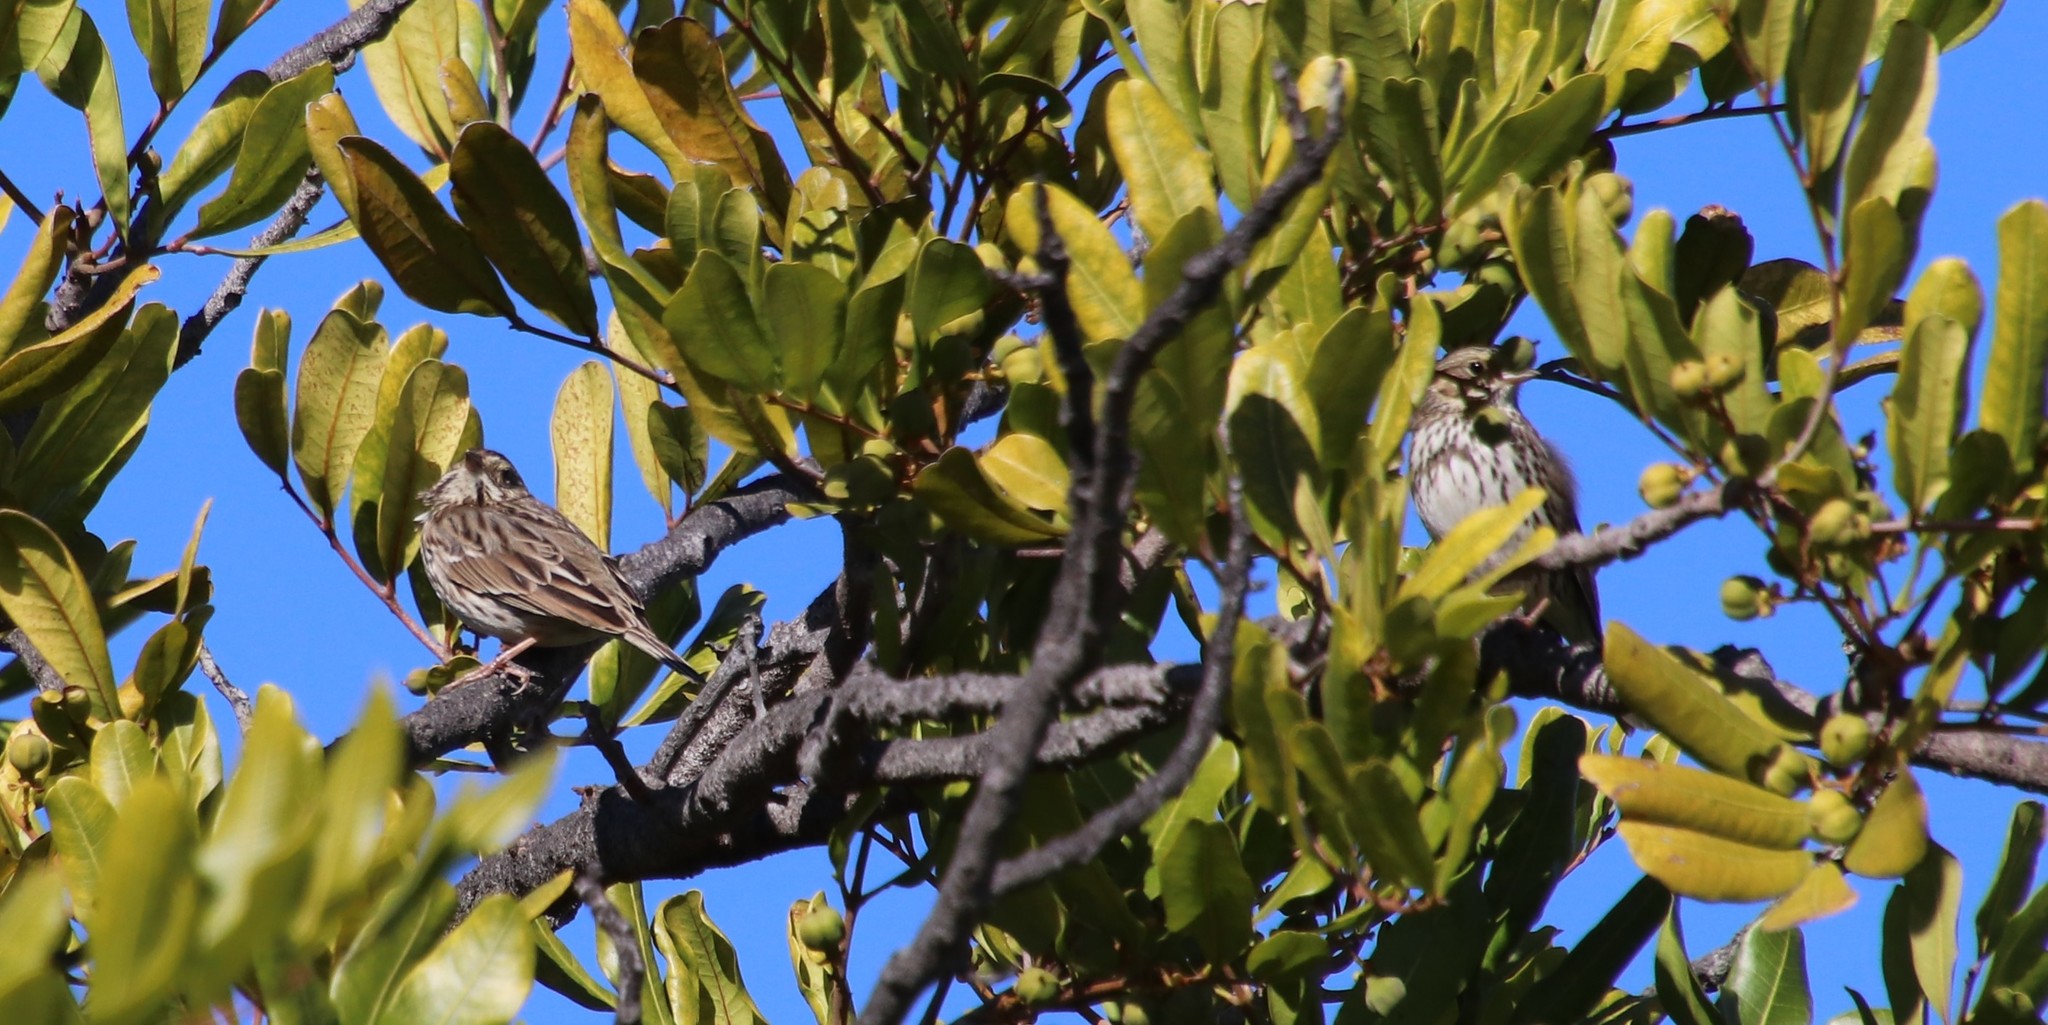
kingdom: Animalia
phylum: Chordata
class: Aves
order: Passeriformes
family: Passerellidae
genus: Passerculus
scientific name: Passerculus sandwichensis
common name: Savannah sparrow
